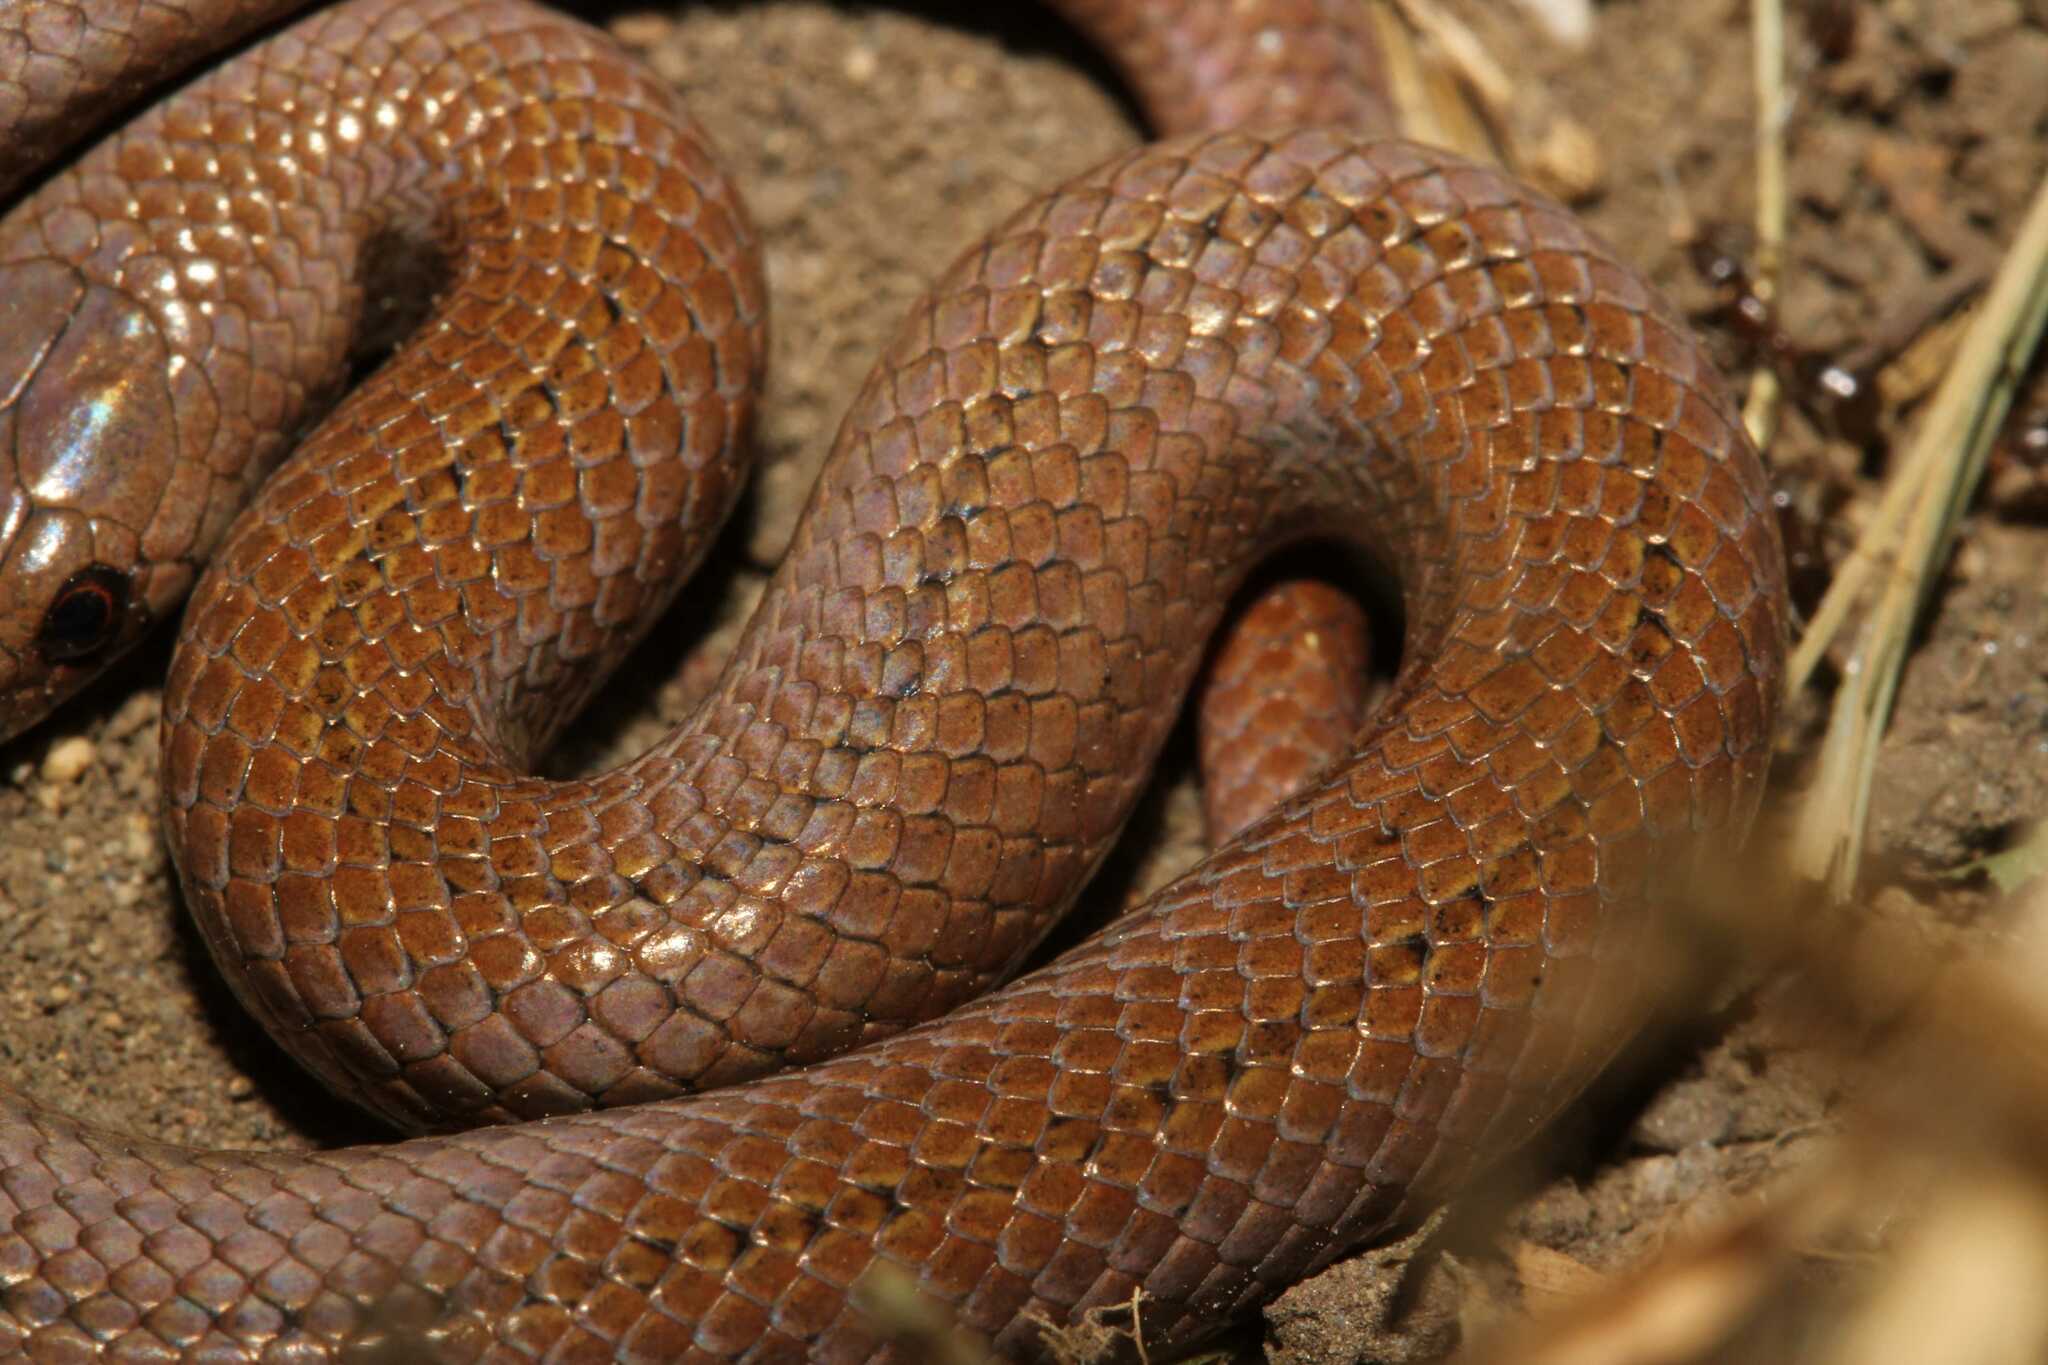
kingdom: Animalia
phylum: Chordata
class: Squamata
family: Colubridae
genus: Conopsis
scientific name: Conopsis lineata
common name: Lined tolucan earthsnake
